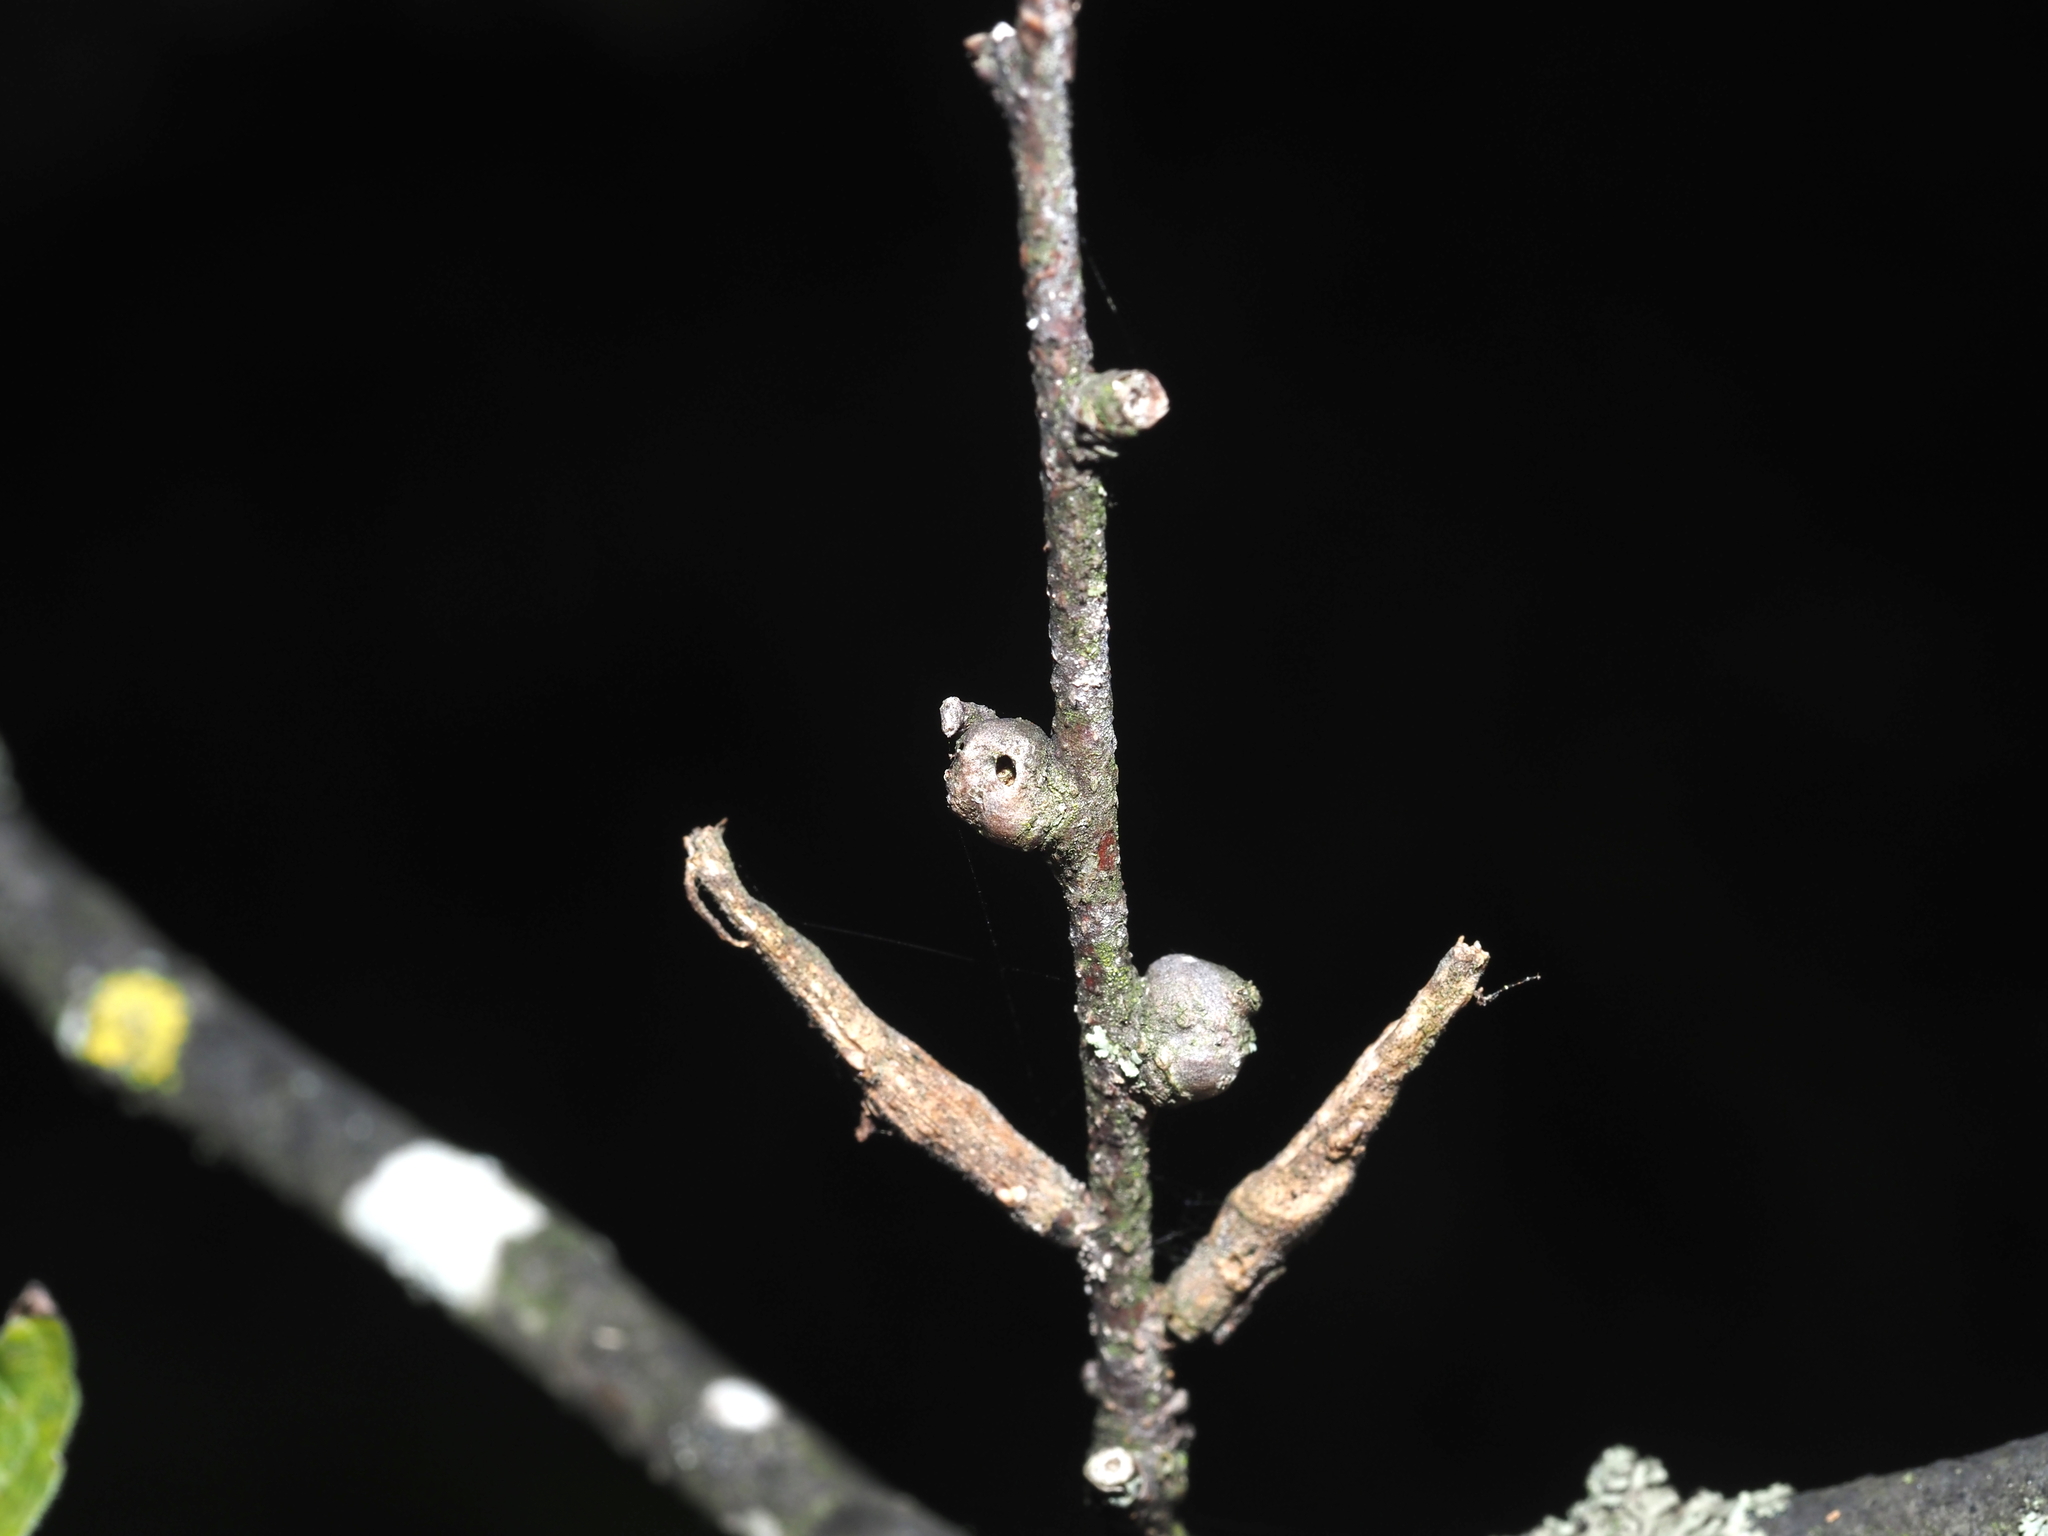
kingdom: Animalia
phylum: Arthropoda
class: Insecta
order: Hemiptera
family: Aphalaridae
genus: Pachypsylla
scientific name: Pachypsylla celtidisgemma
